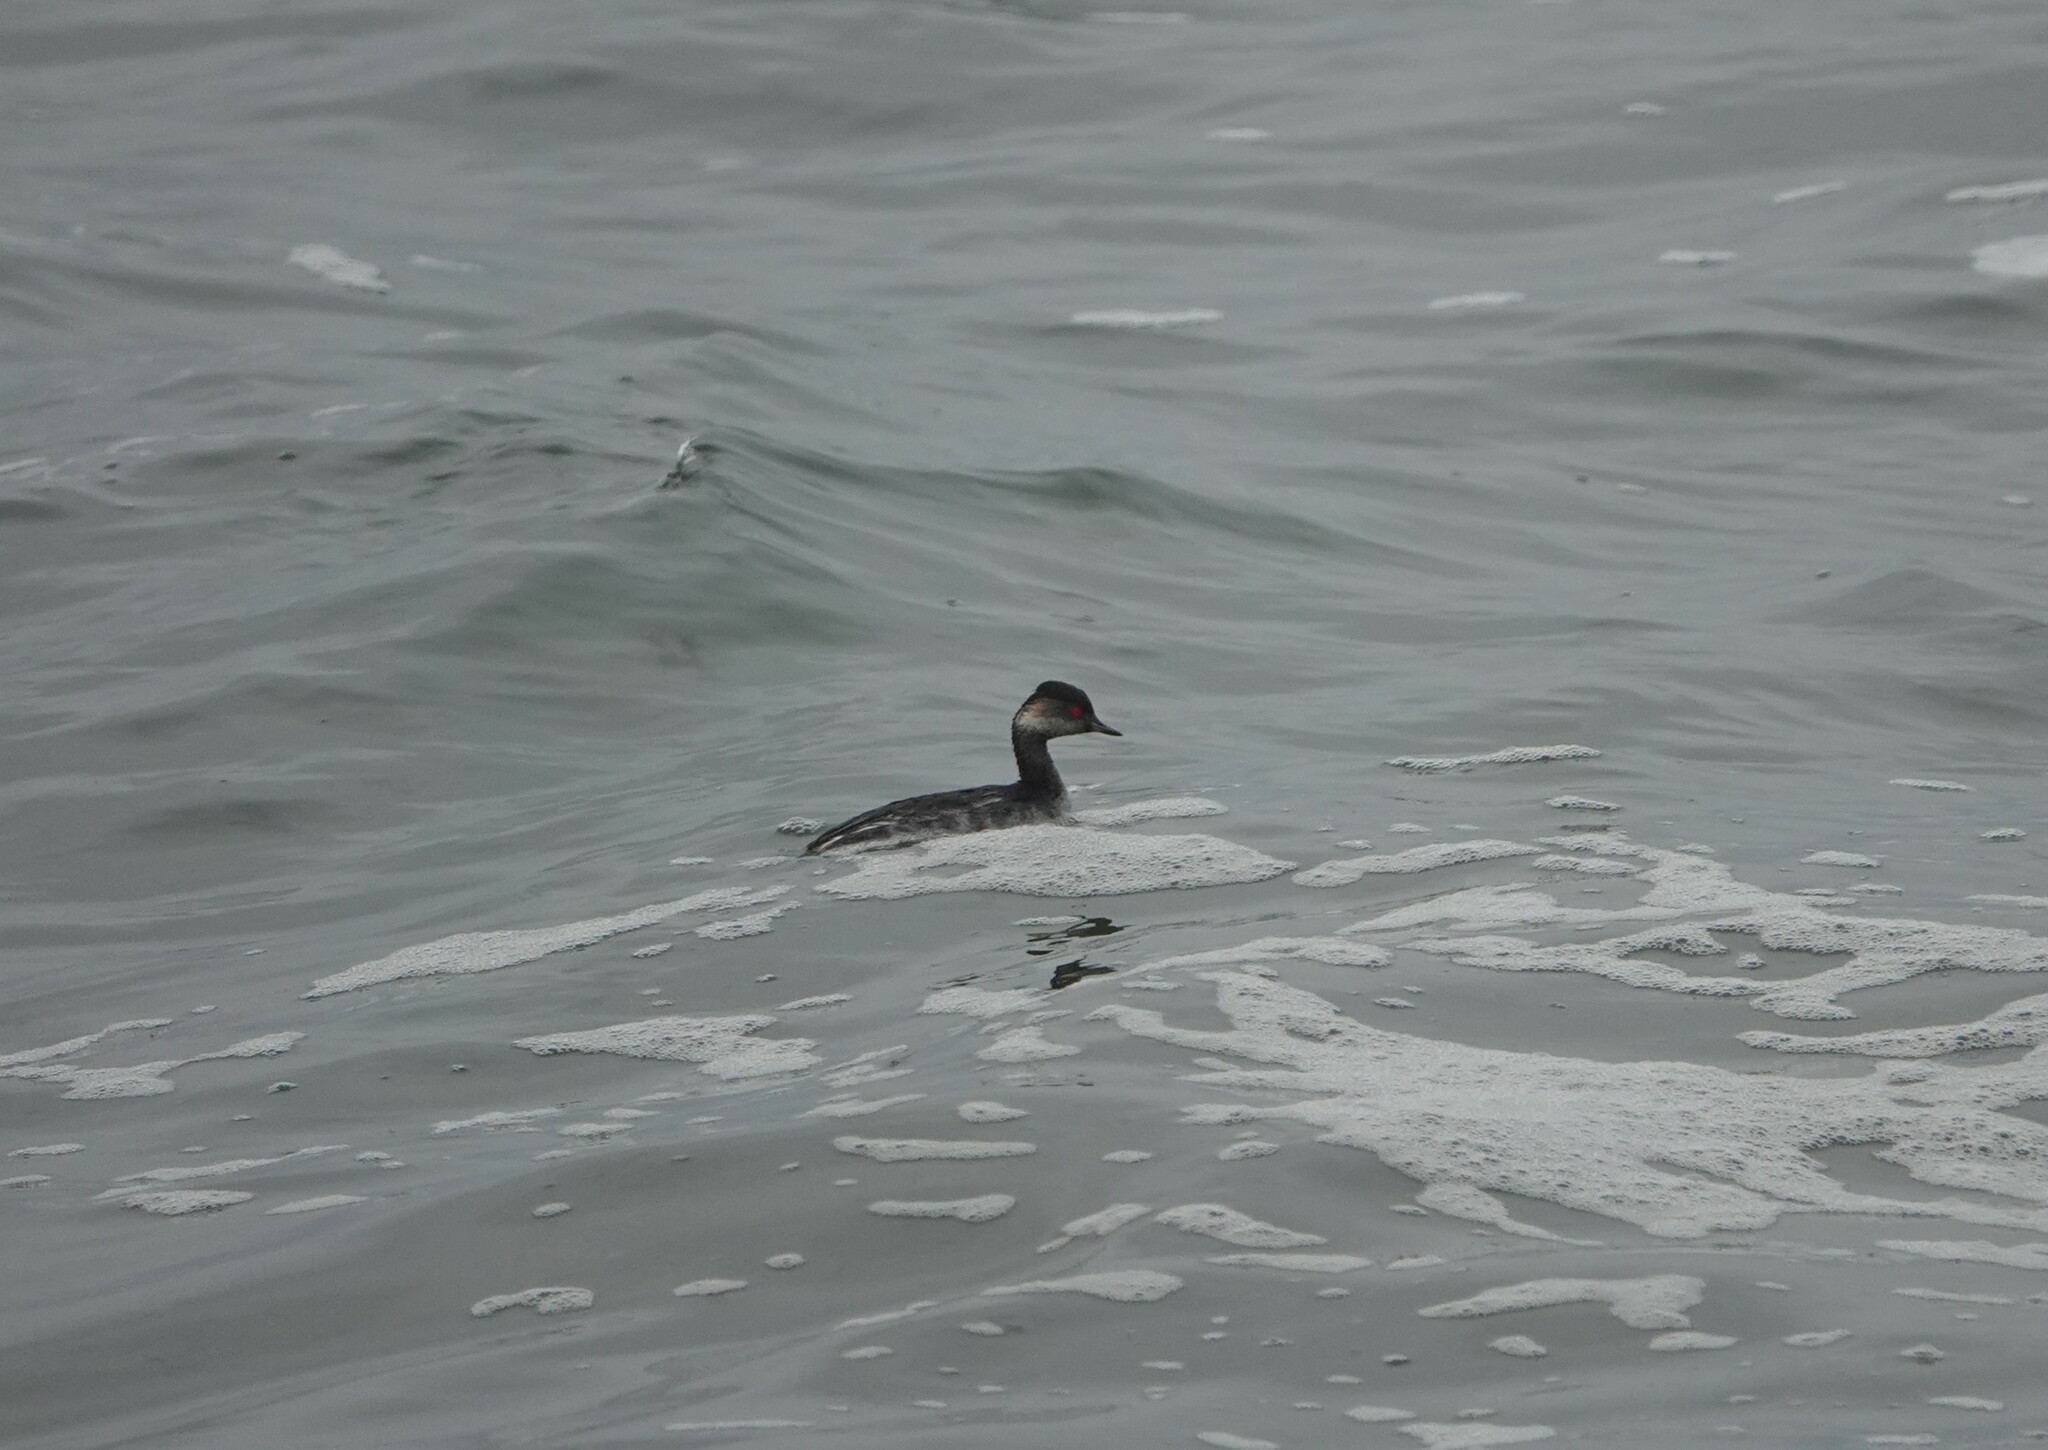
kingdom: Animalia
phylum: Chordata
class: Aves
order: Podicipediformes
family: Podicipedidae
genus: Podiceps
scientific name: Podiceps nigricollis
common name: Black-necked grebe
